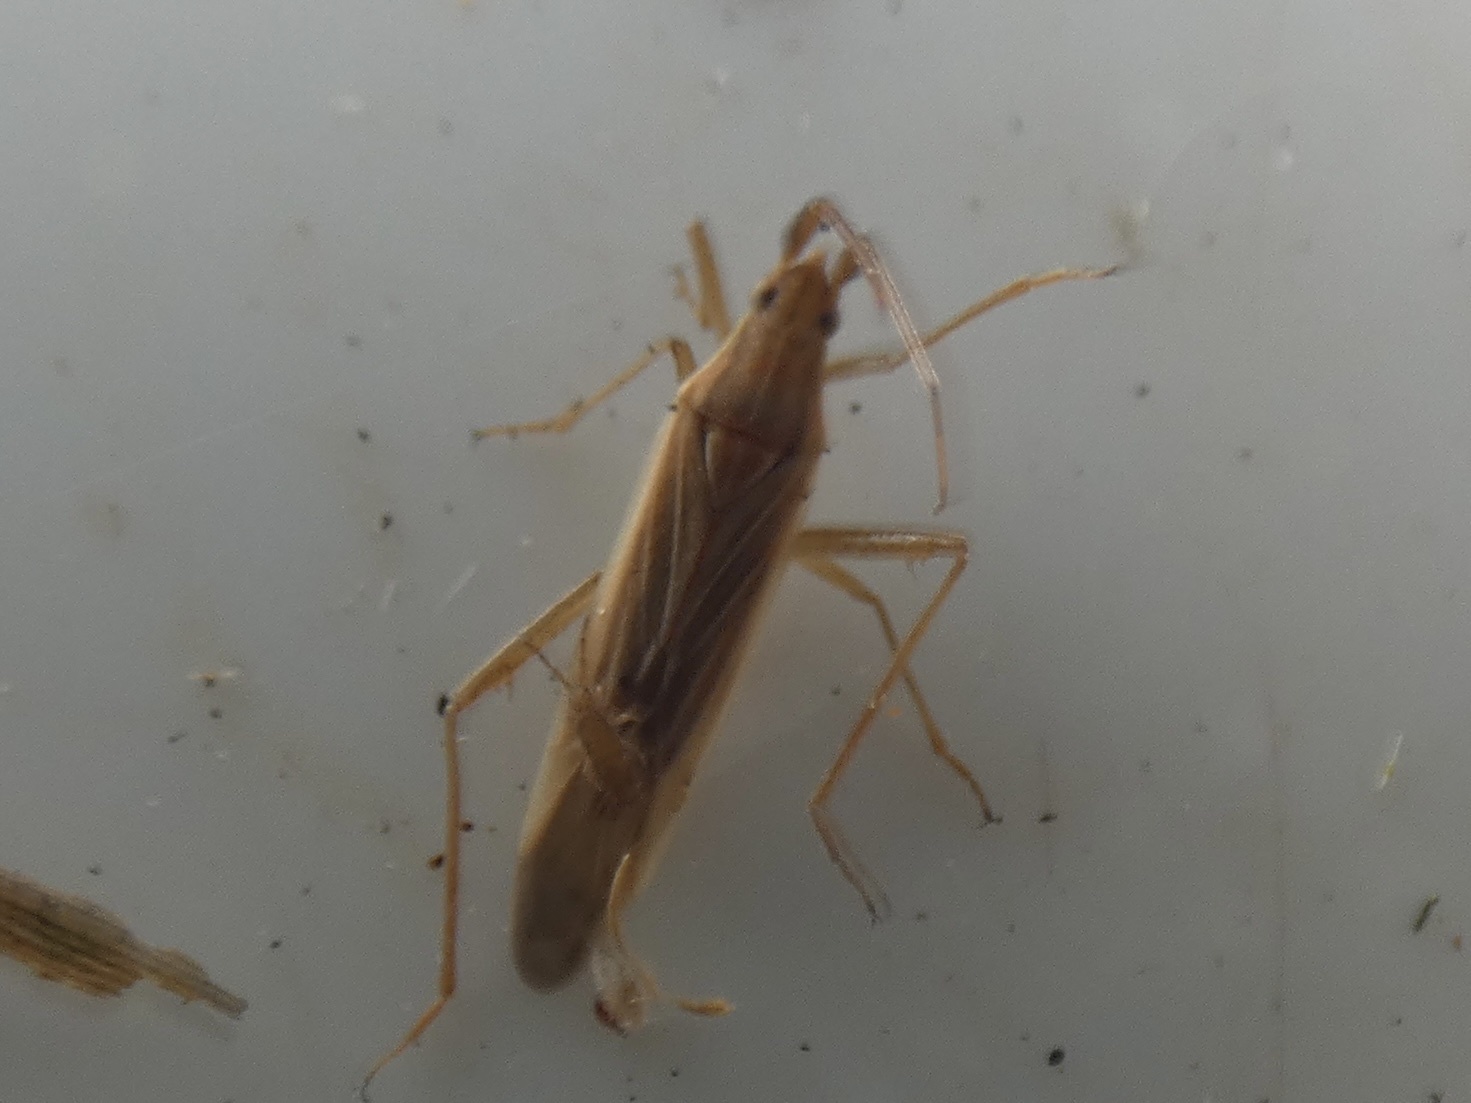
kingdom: Animalia
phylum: Arthropoda
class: Insecta
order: Hemiptera
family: Miridae
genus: Stenodema
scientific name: Stenodema calcarata
